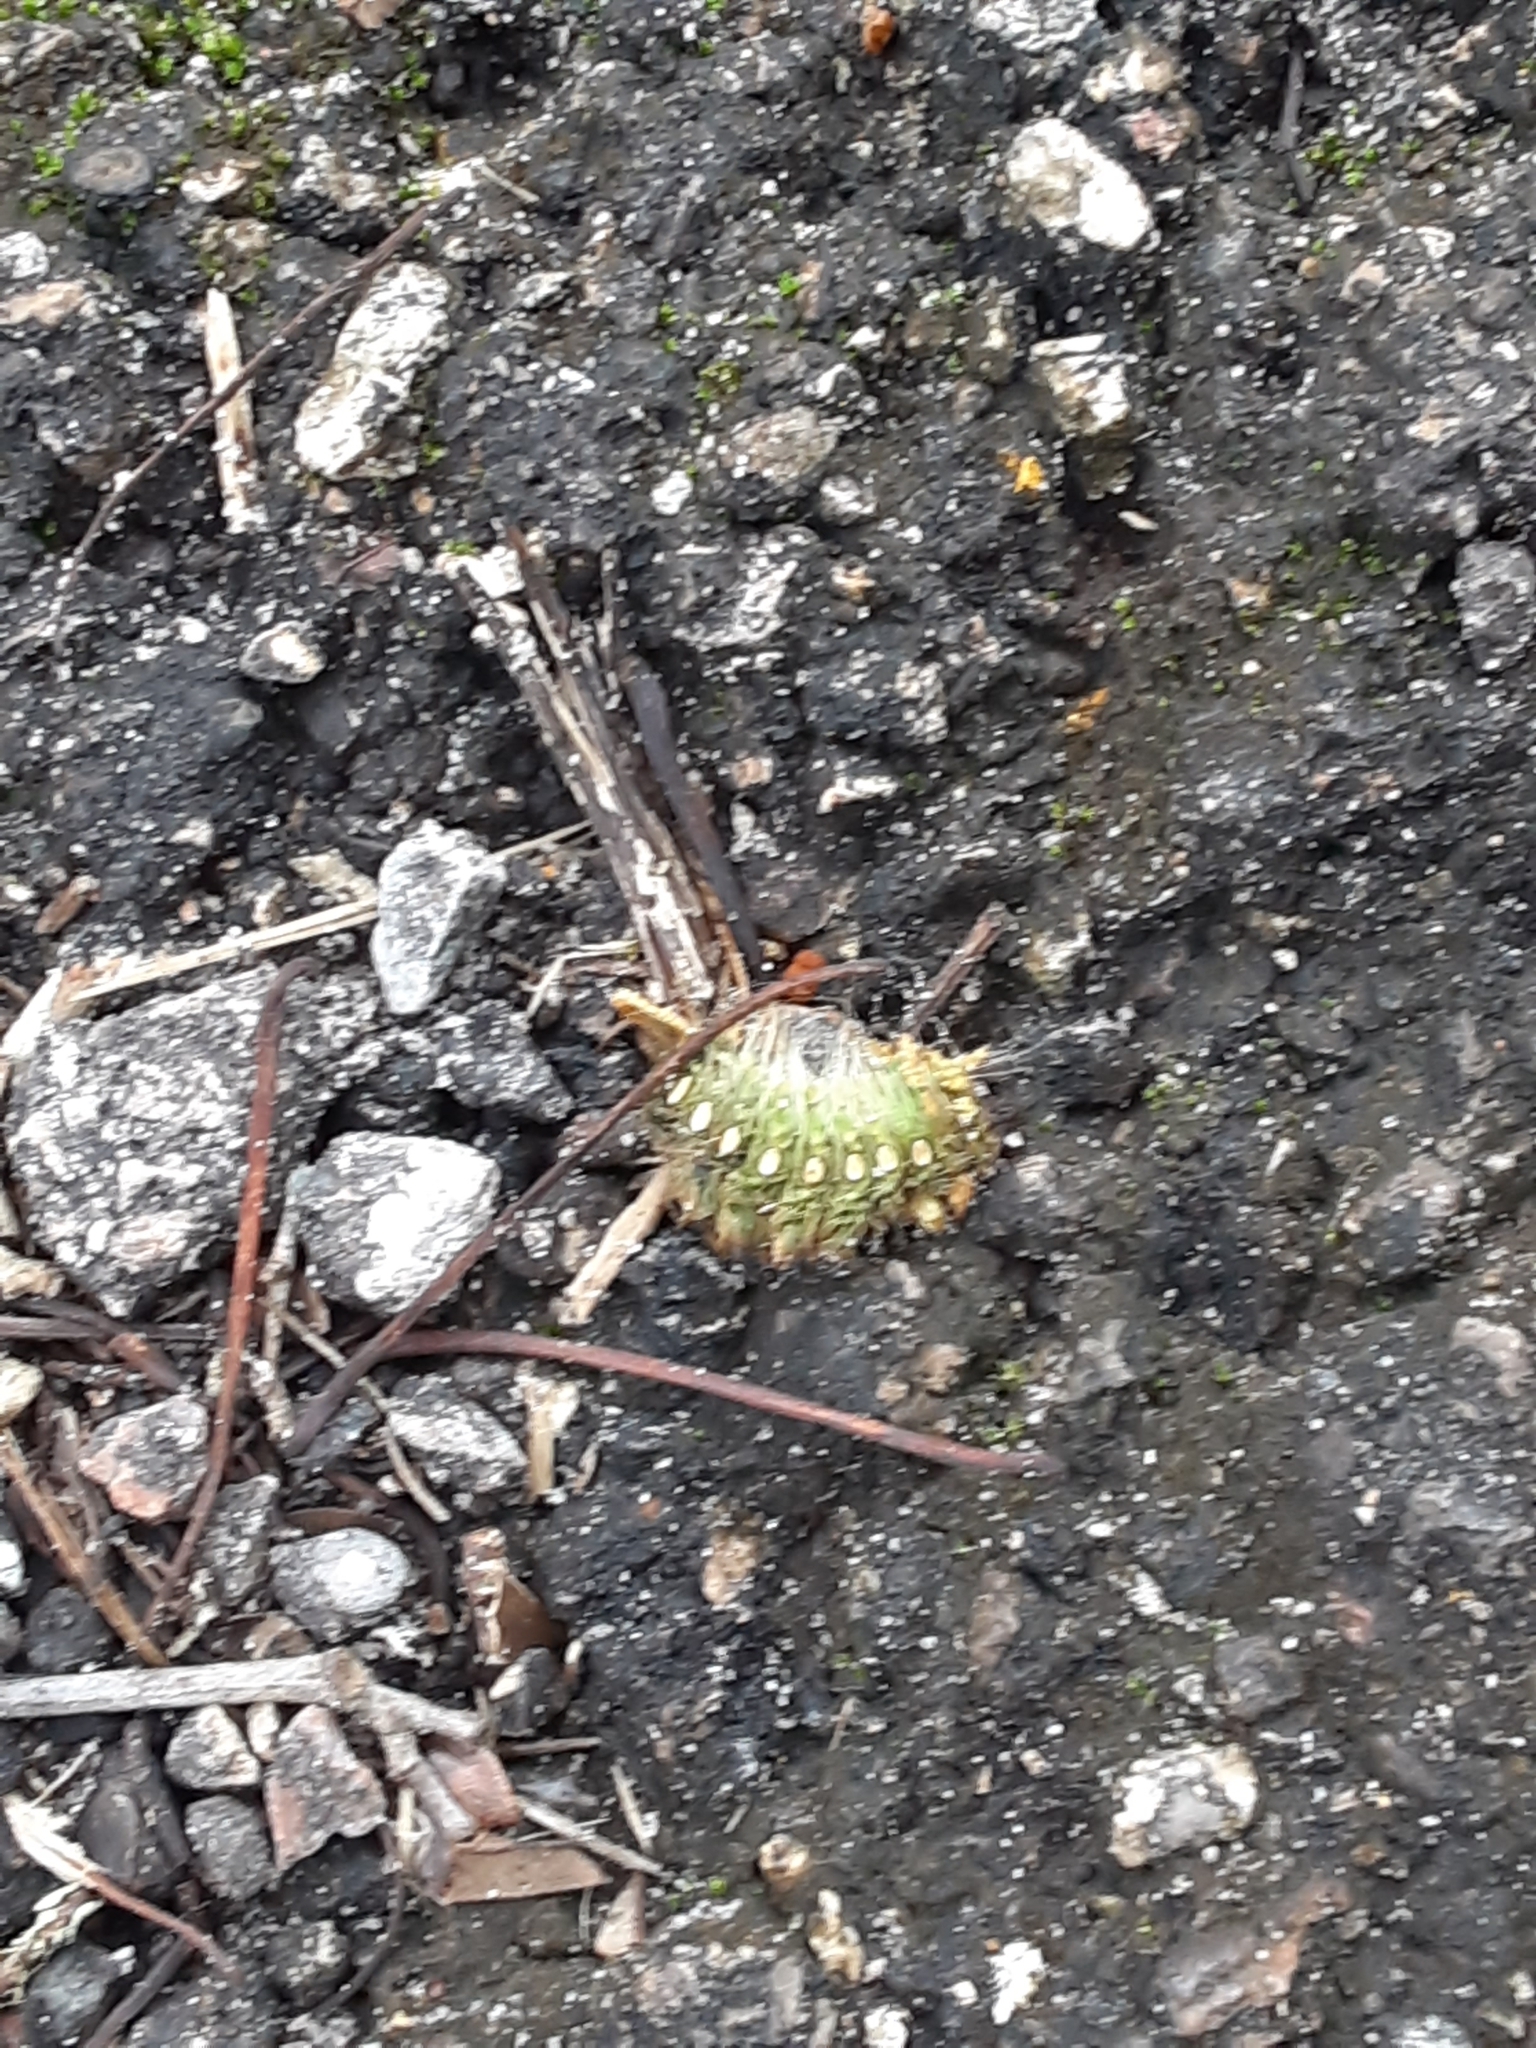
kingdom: Animalia
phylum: Arthropoda
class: Insecta
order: Lepidoptera
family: Saturniidae
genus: Eacles
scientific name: Eacles imperialis
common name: Imperial moth
